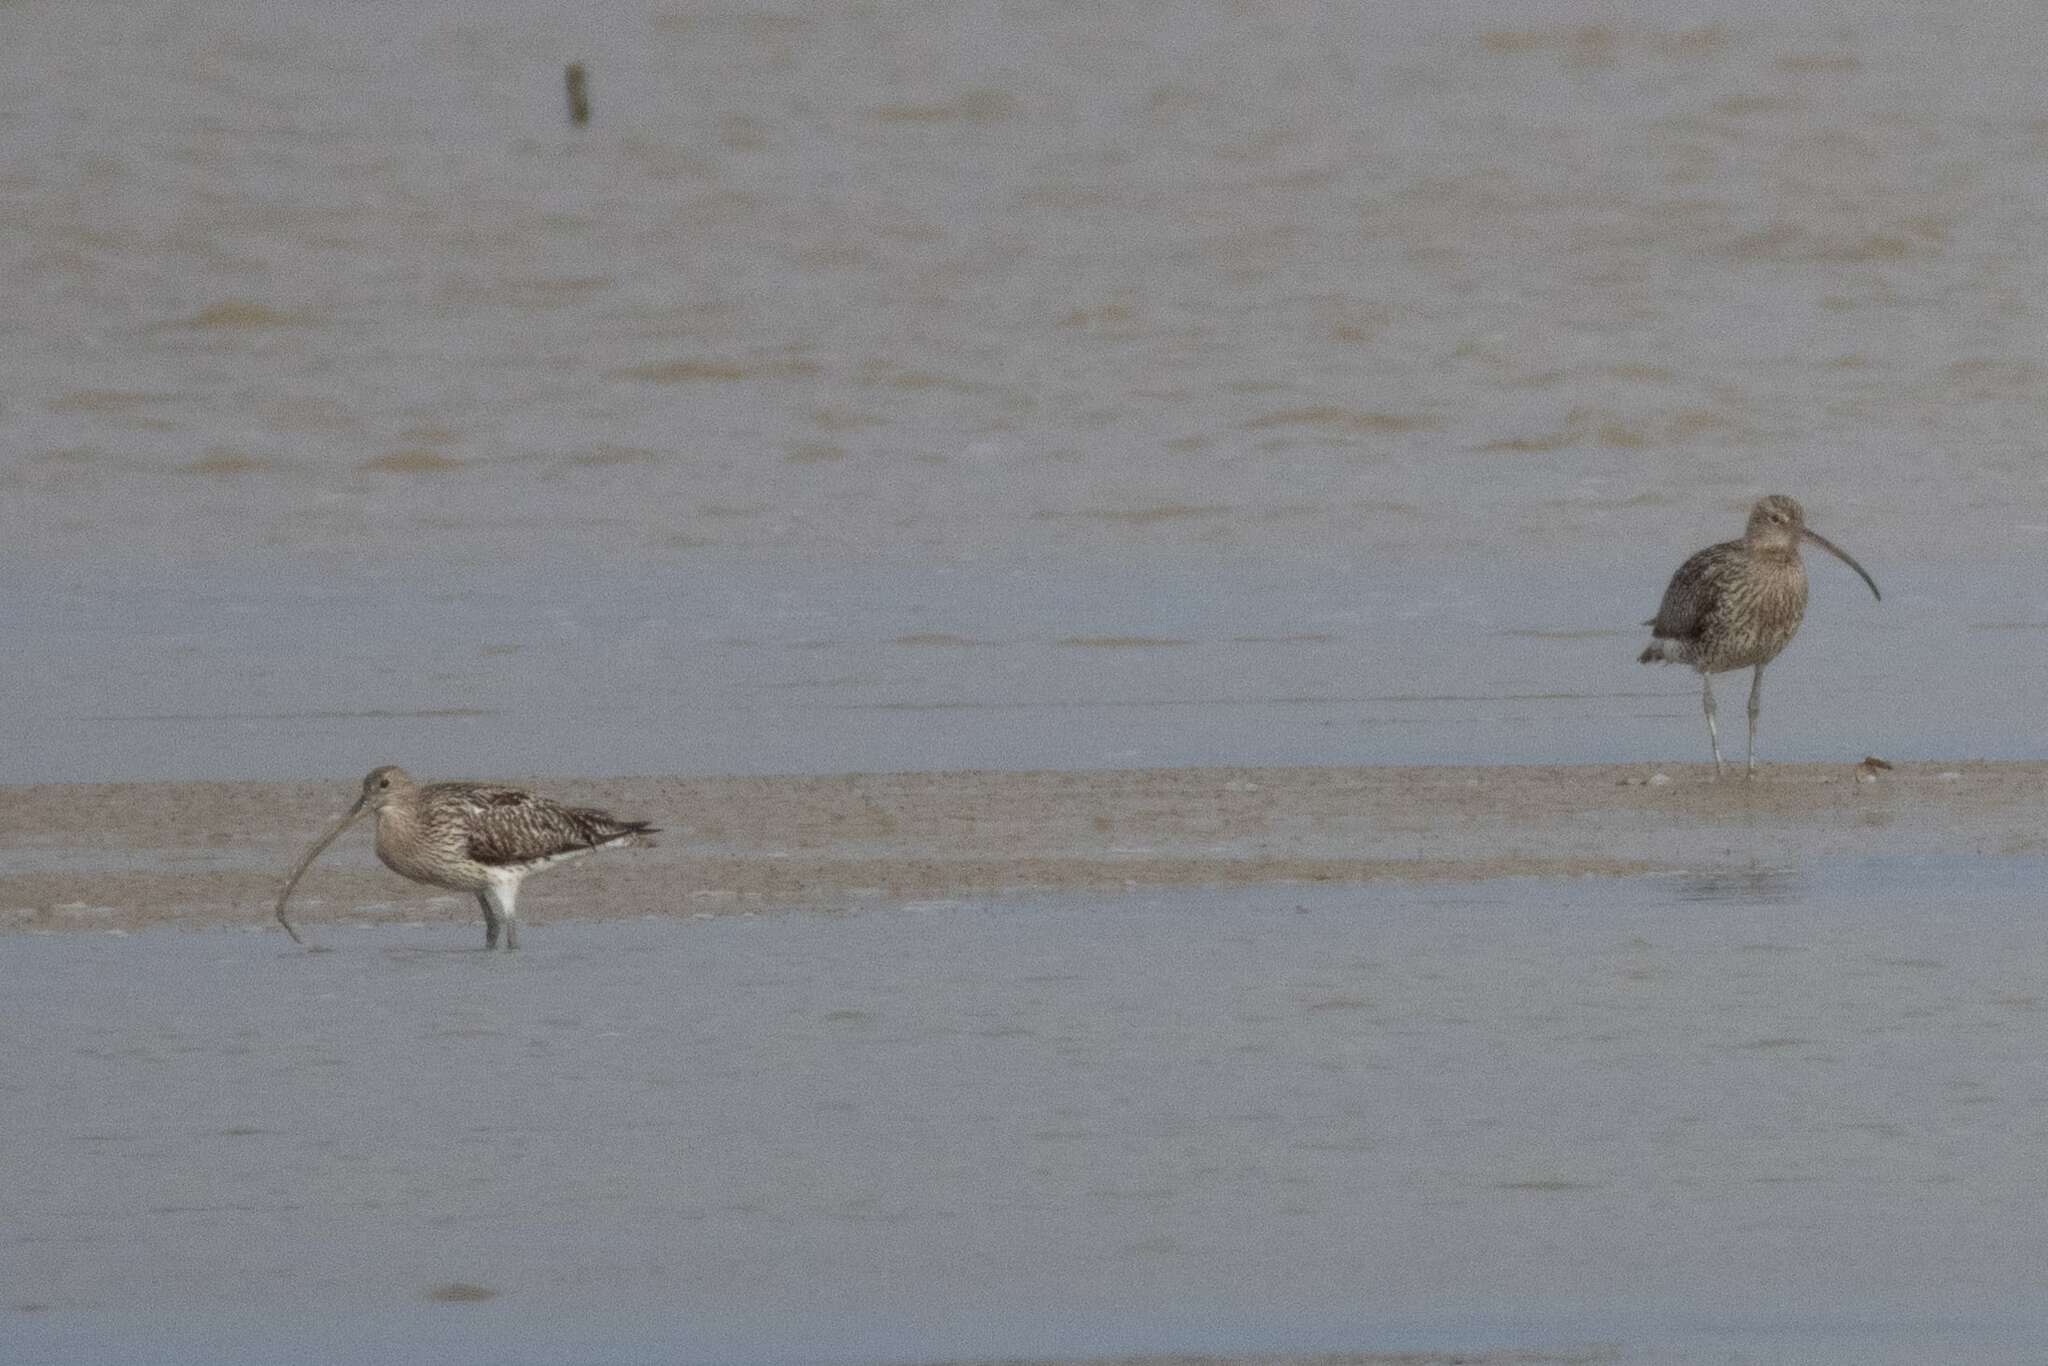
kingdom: Animalia
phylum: Chordata
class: Aves
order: Charadriiformes
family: Scolopacidae
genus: Numenius
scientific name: Numenius arquata
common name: Eurasian curlew
